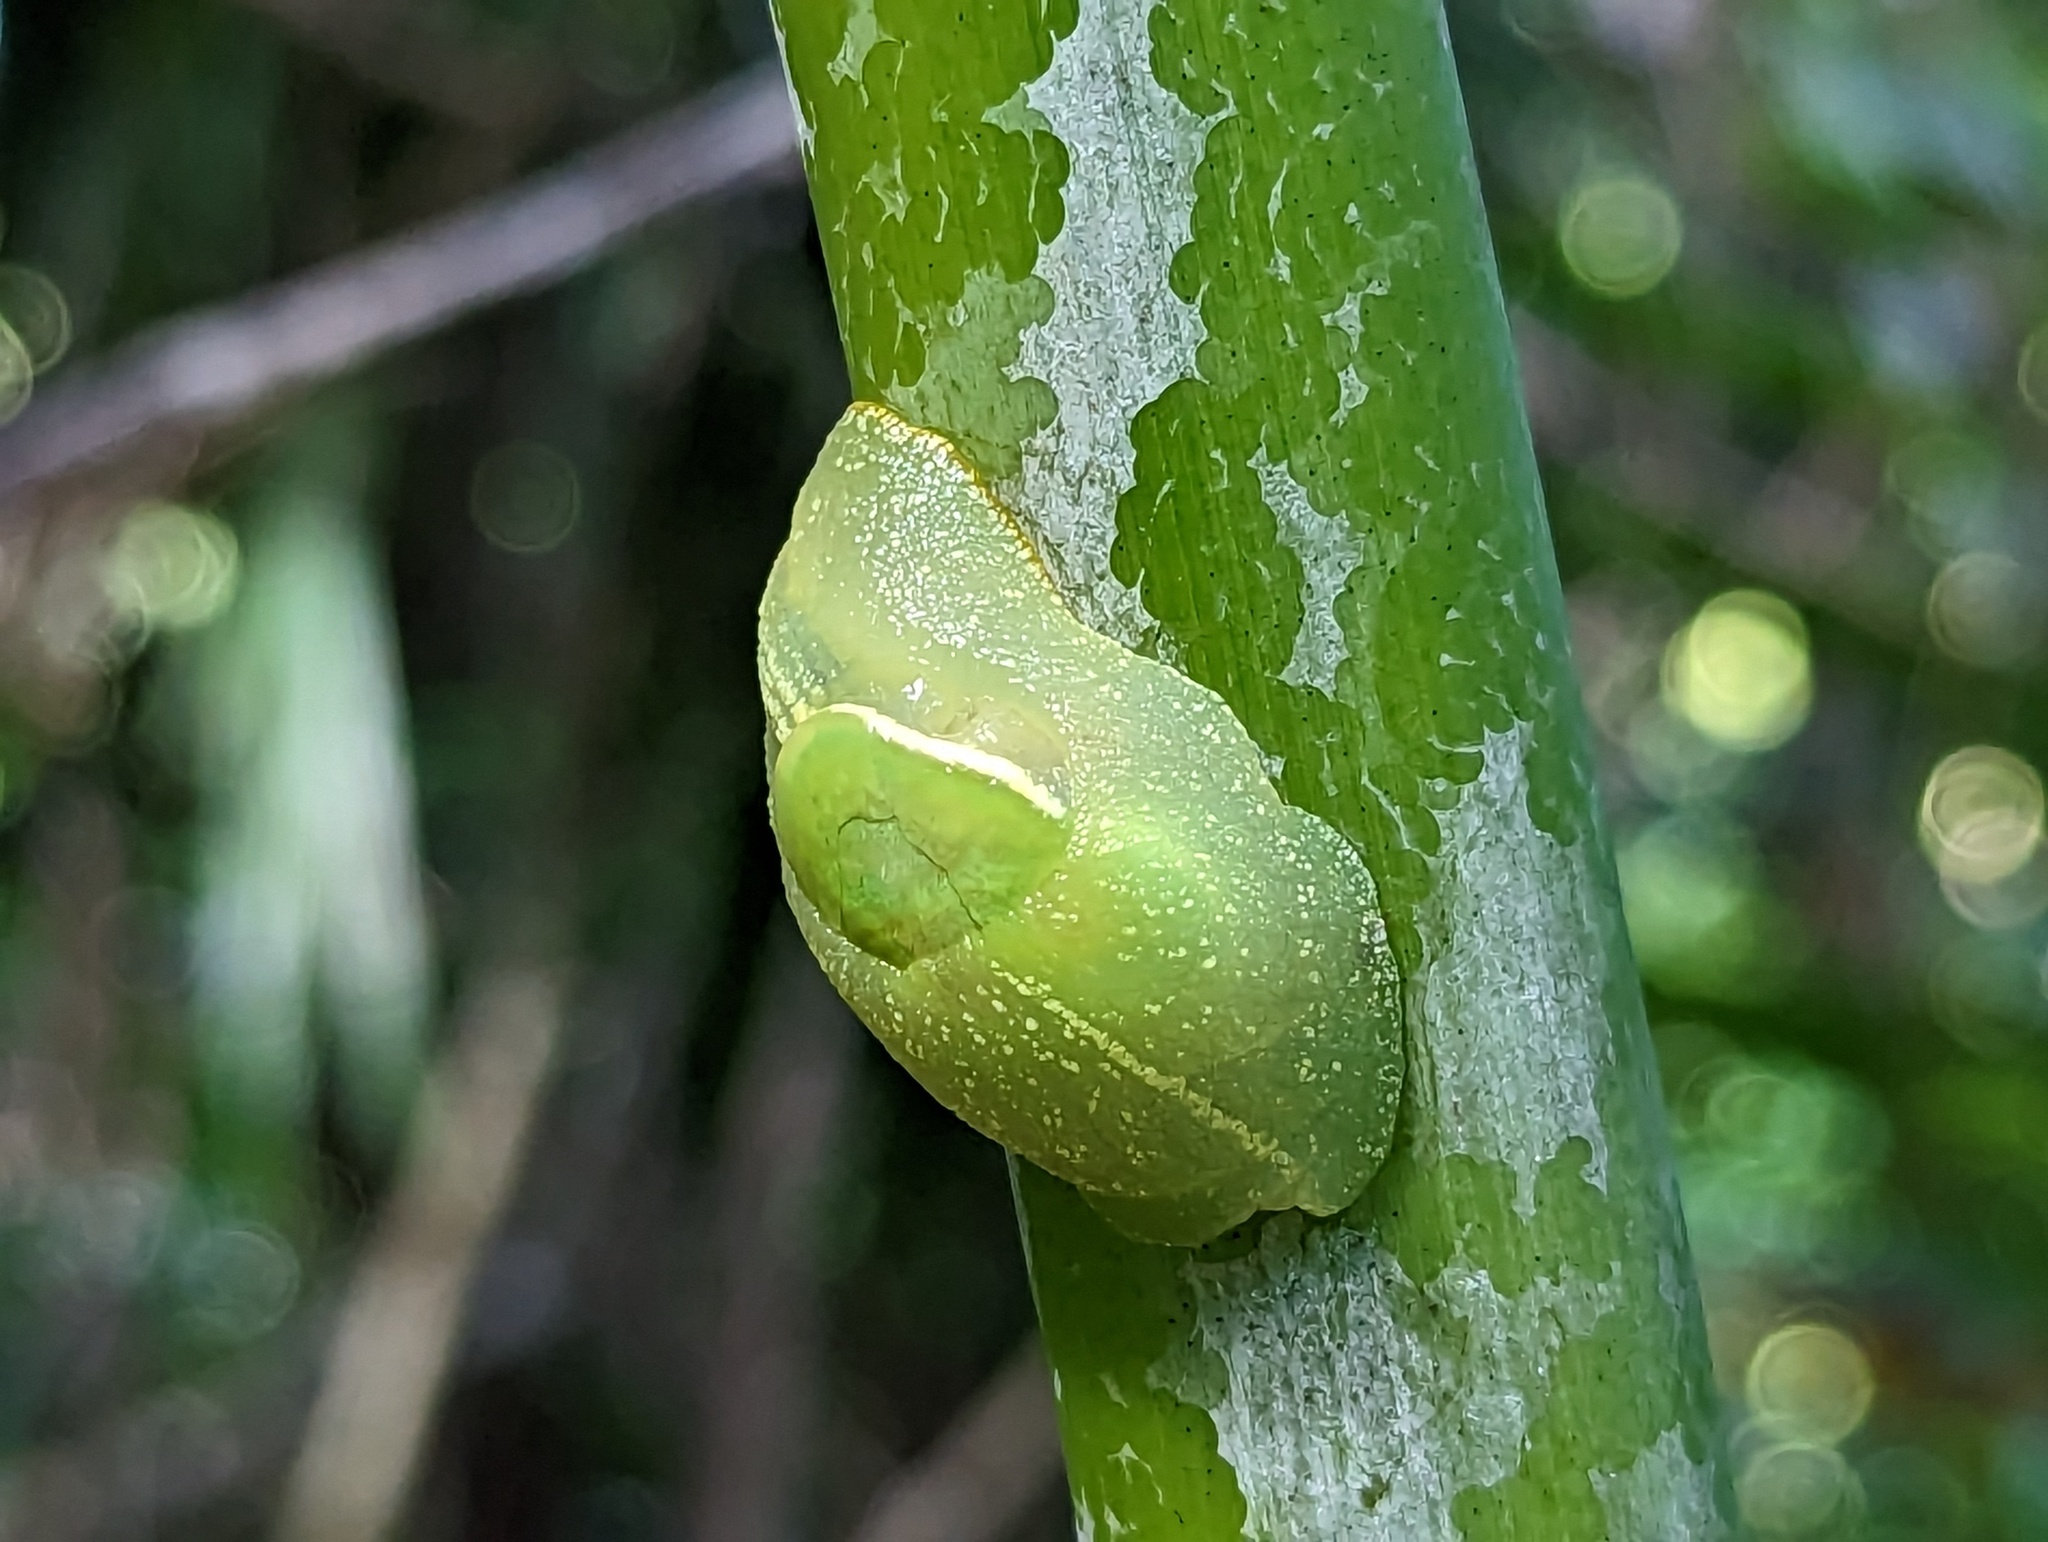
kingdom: Animalia
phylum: Mollusca
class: Gastropoda
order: Stylommatophora
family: Amphibulimidae
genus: Gaeotis
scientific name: Gaeotis nigrolineata
